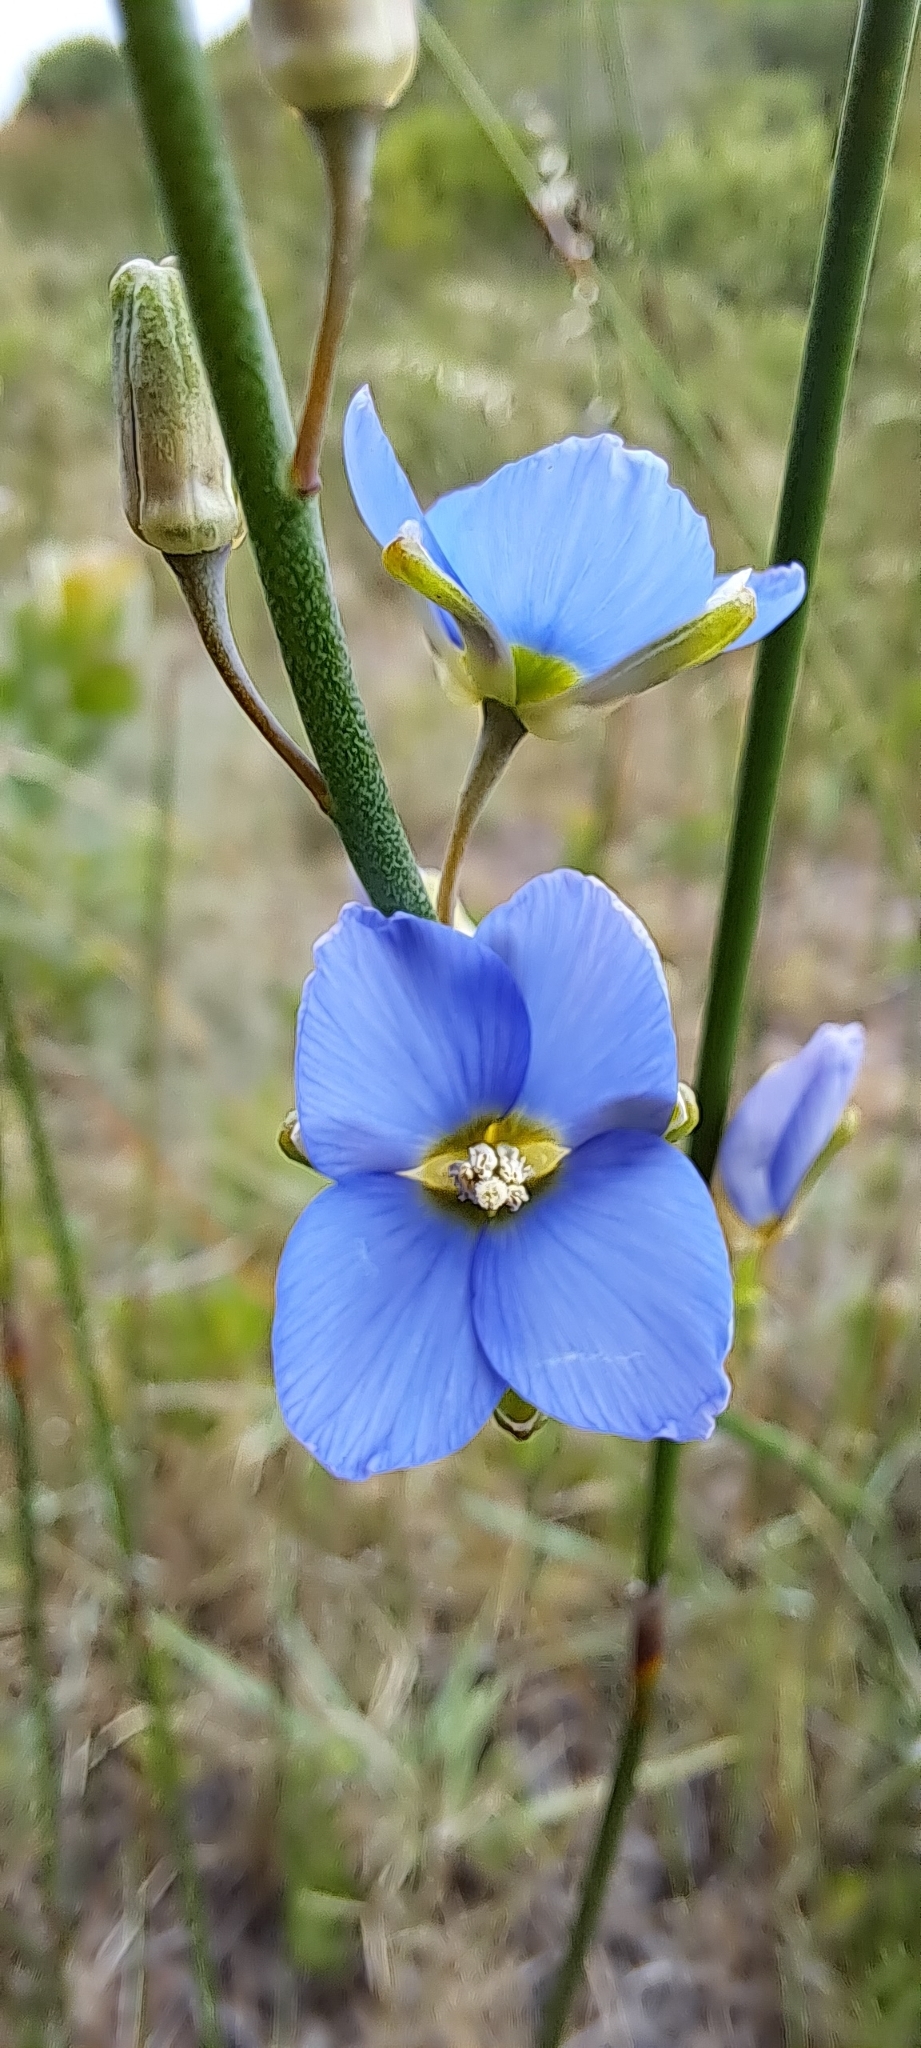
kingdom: Plantae
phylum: Tracheophyta
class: Magnoliopsida
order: Brassicales
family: Brassicaceae
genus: Heliophila
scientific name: Heliophila linearis
